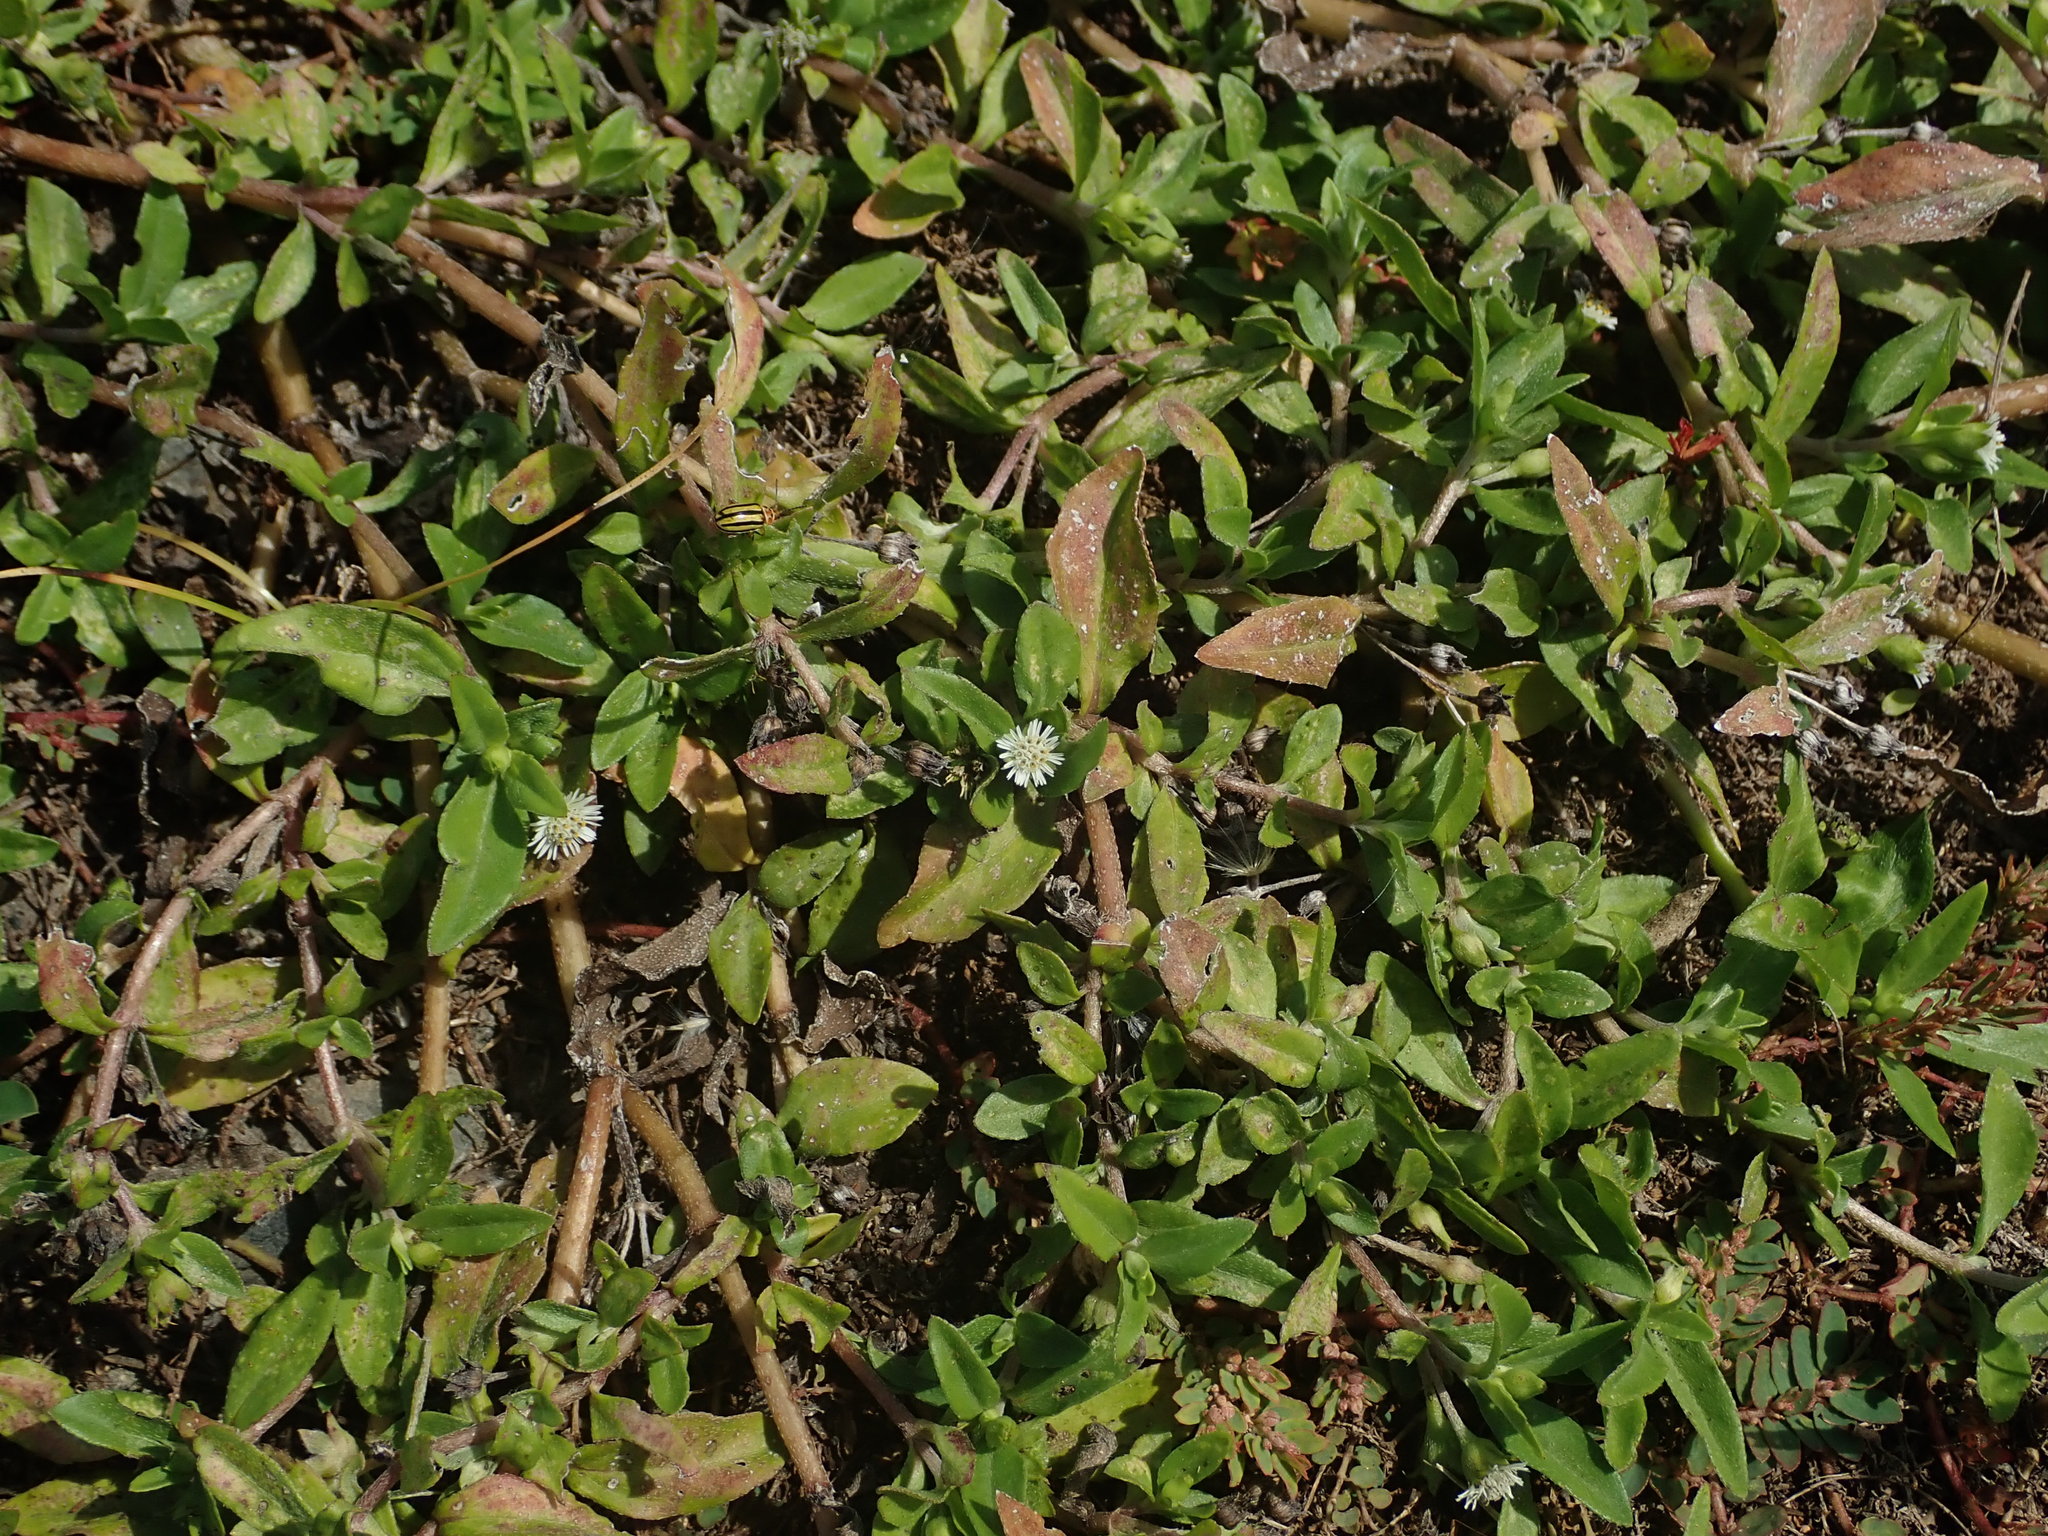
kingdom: Plantae
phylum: Tracheophyta
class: Magnoliopsida
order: Asterales
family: Asteraceae
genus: Eclipta
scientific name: Eclipta prostrata
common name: False daisy
